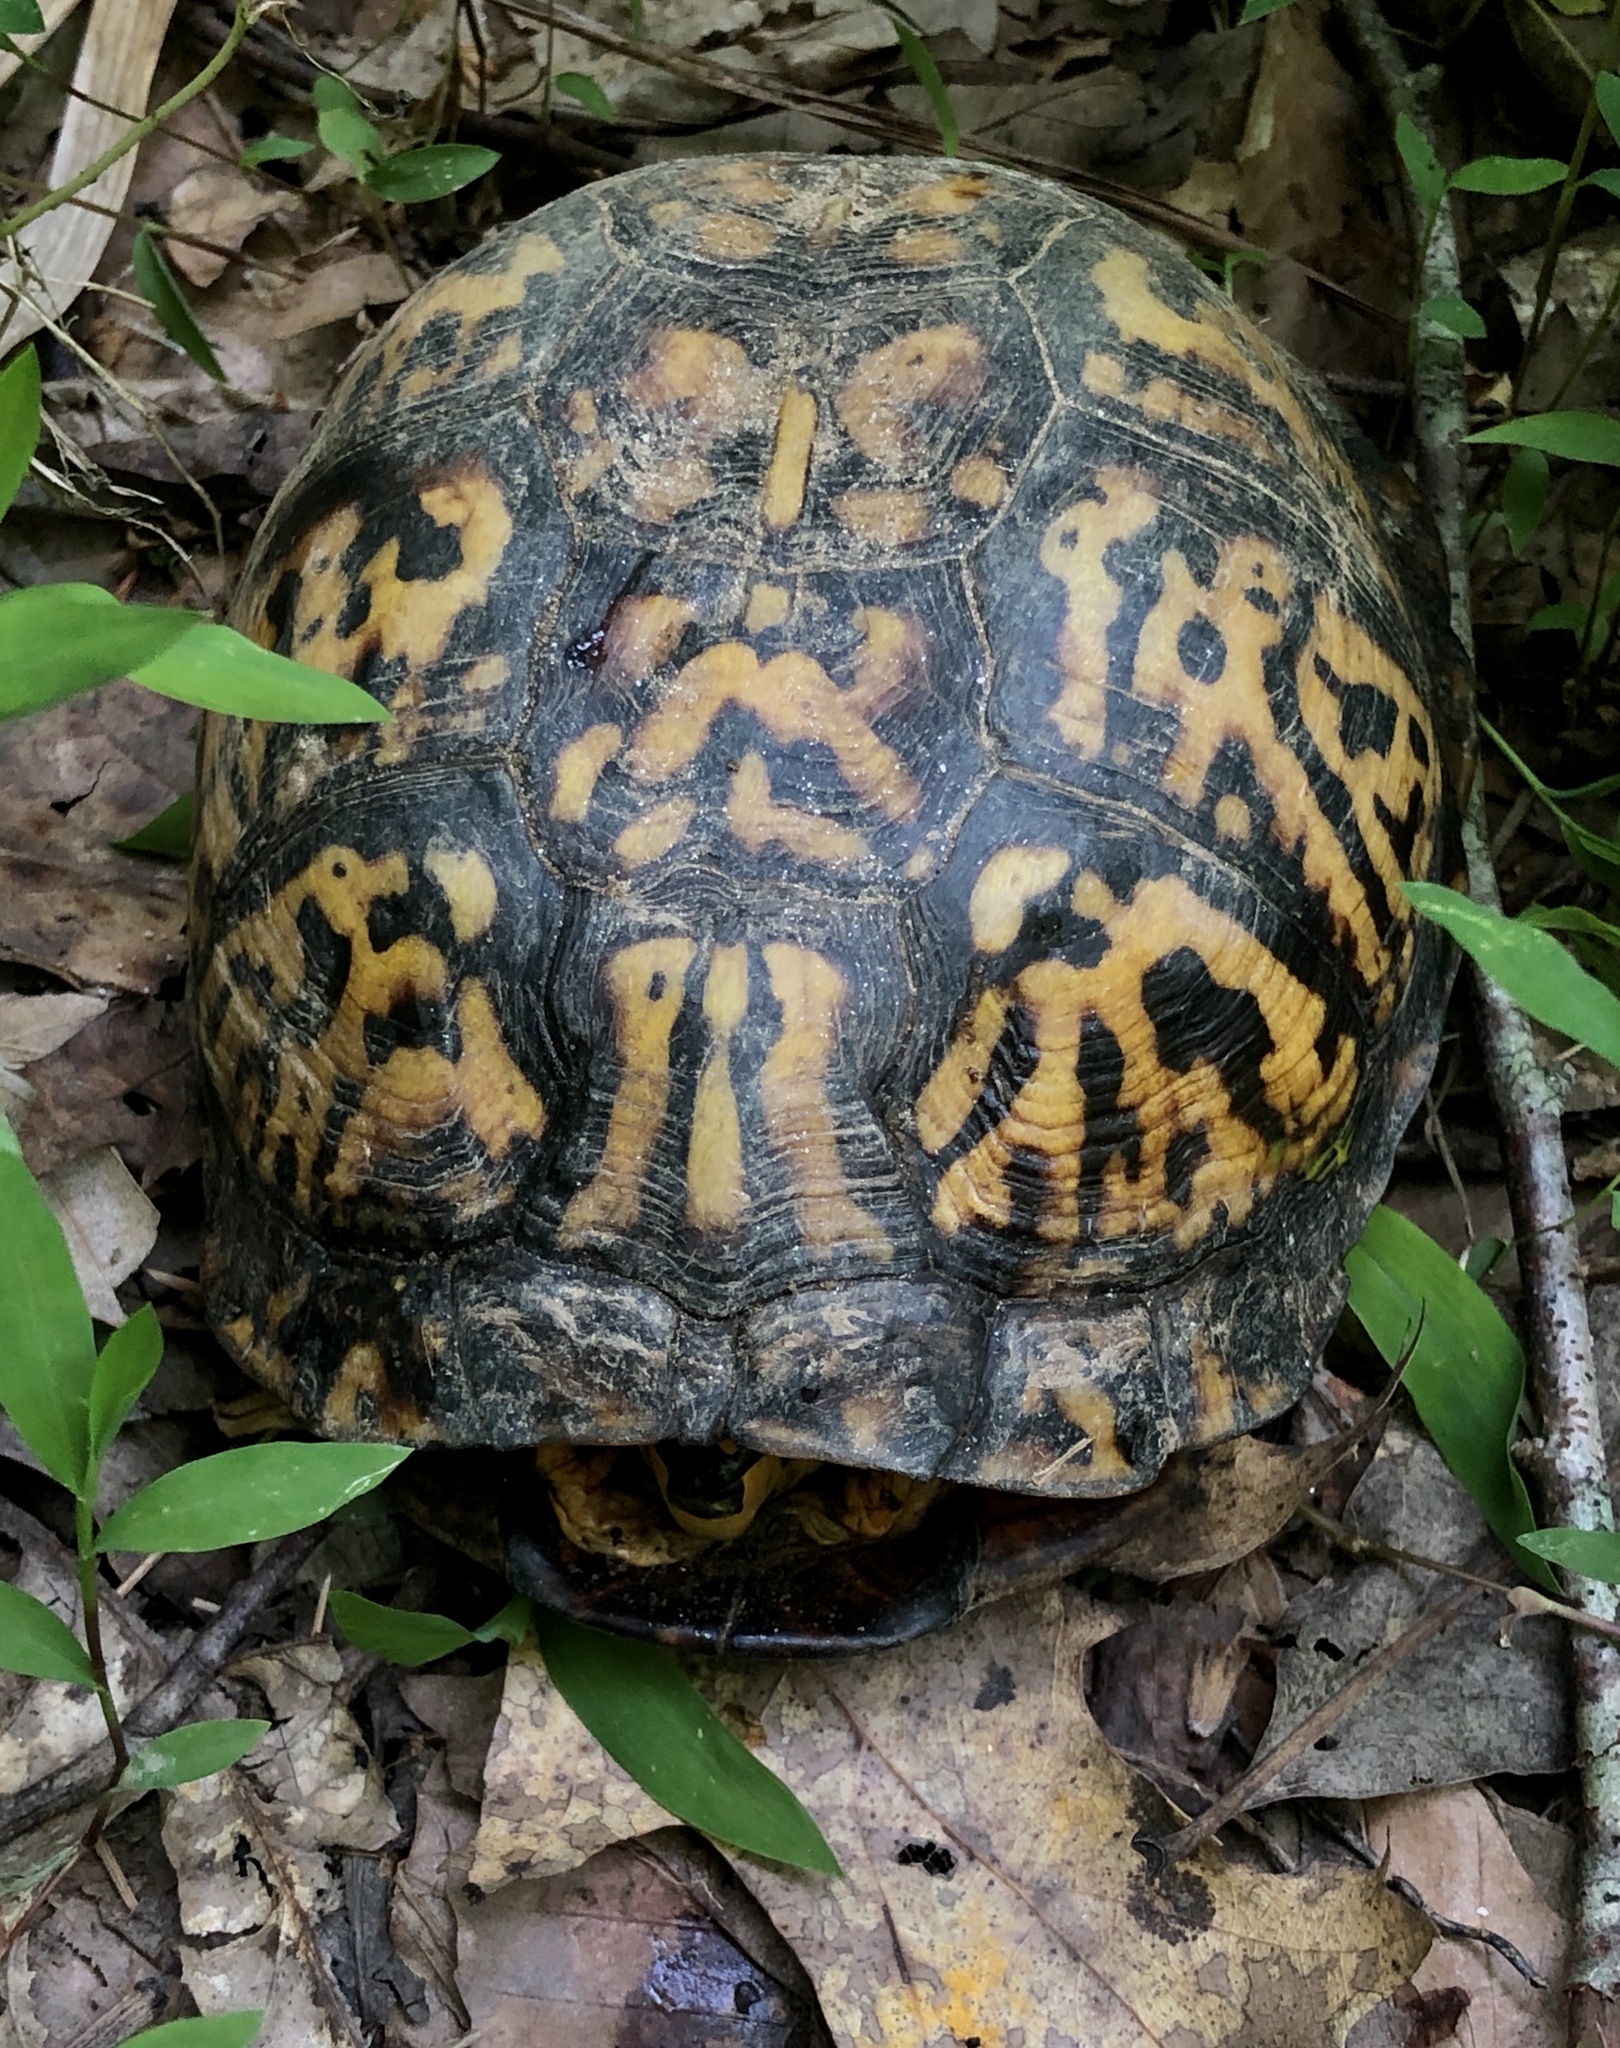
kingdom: Animalia
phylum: Chordata
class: Testudines
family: Emydidae
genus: Terrapene
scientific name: Terrapene carolina
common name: Common box turtle
